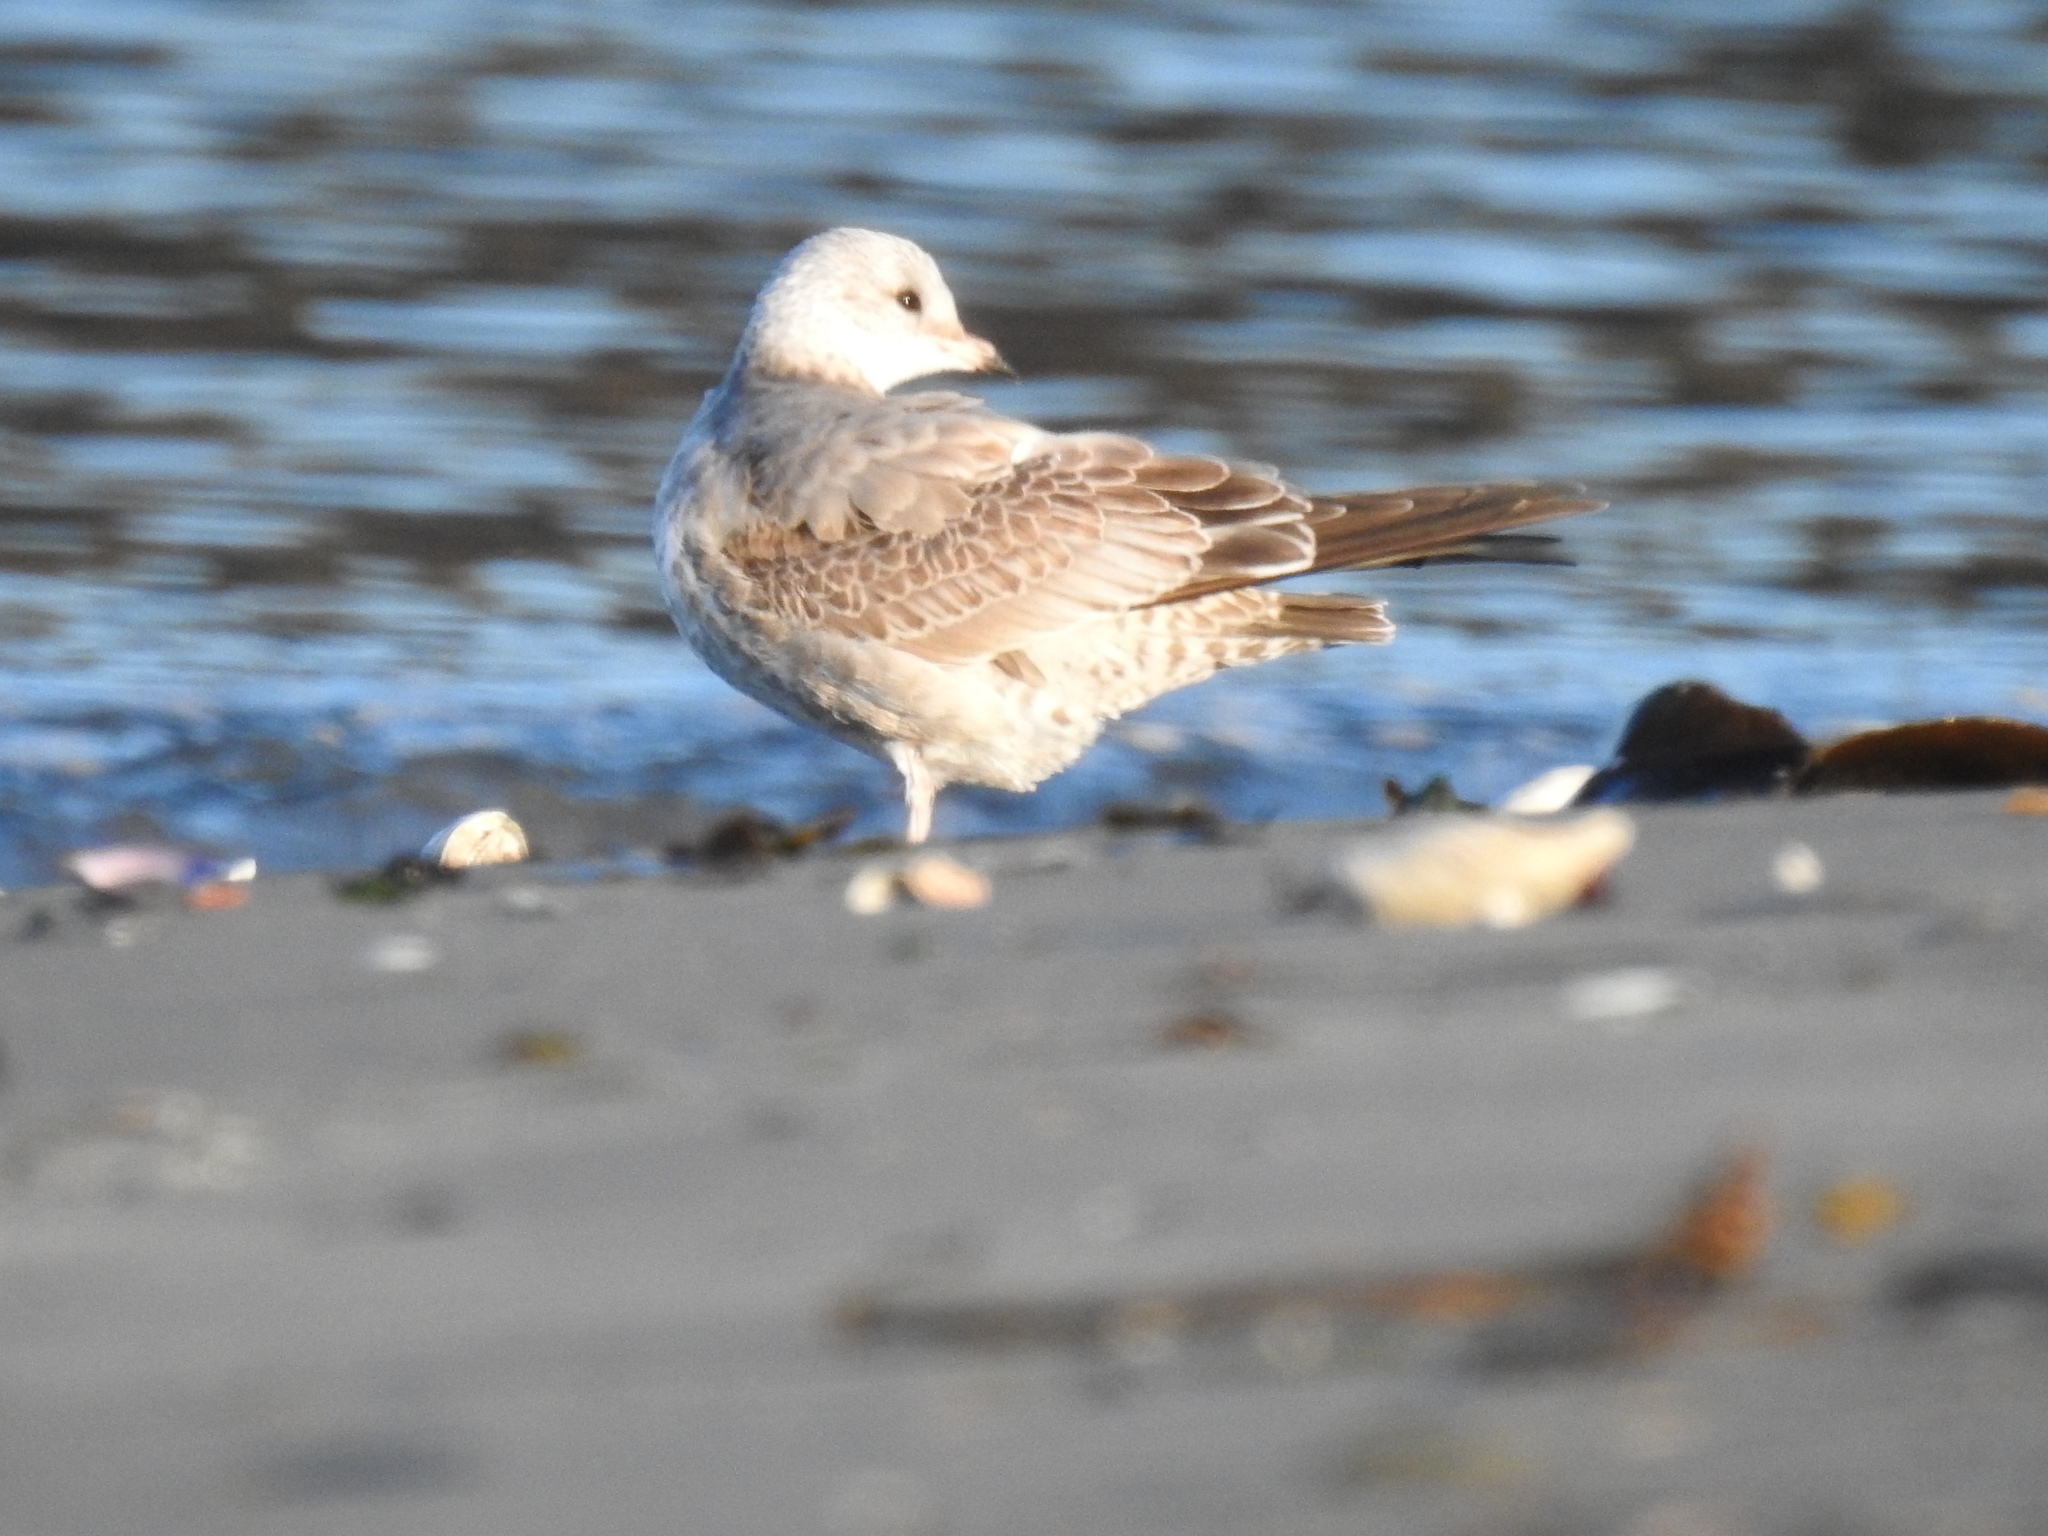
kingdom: Animalia
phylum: Chordata
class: Aves
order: Charadriiformes
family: Laridae
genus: Larus
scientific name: Larus brachyrhynchus
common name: Short-billed gull
